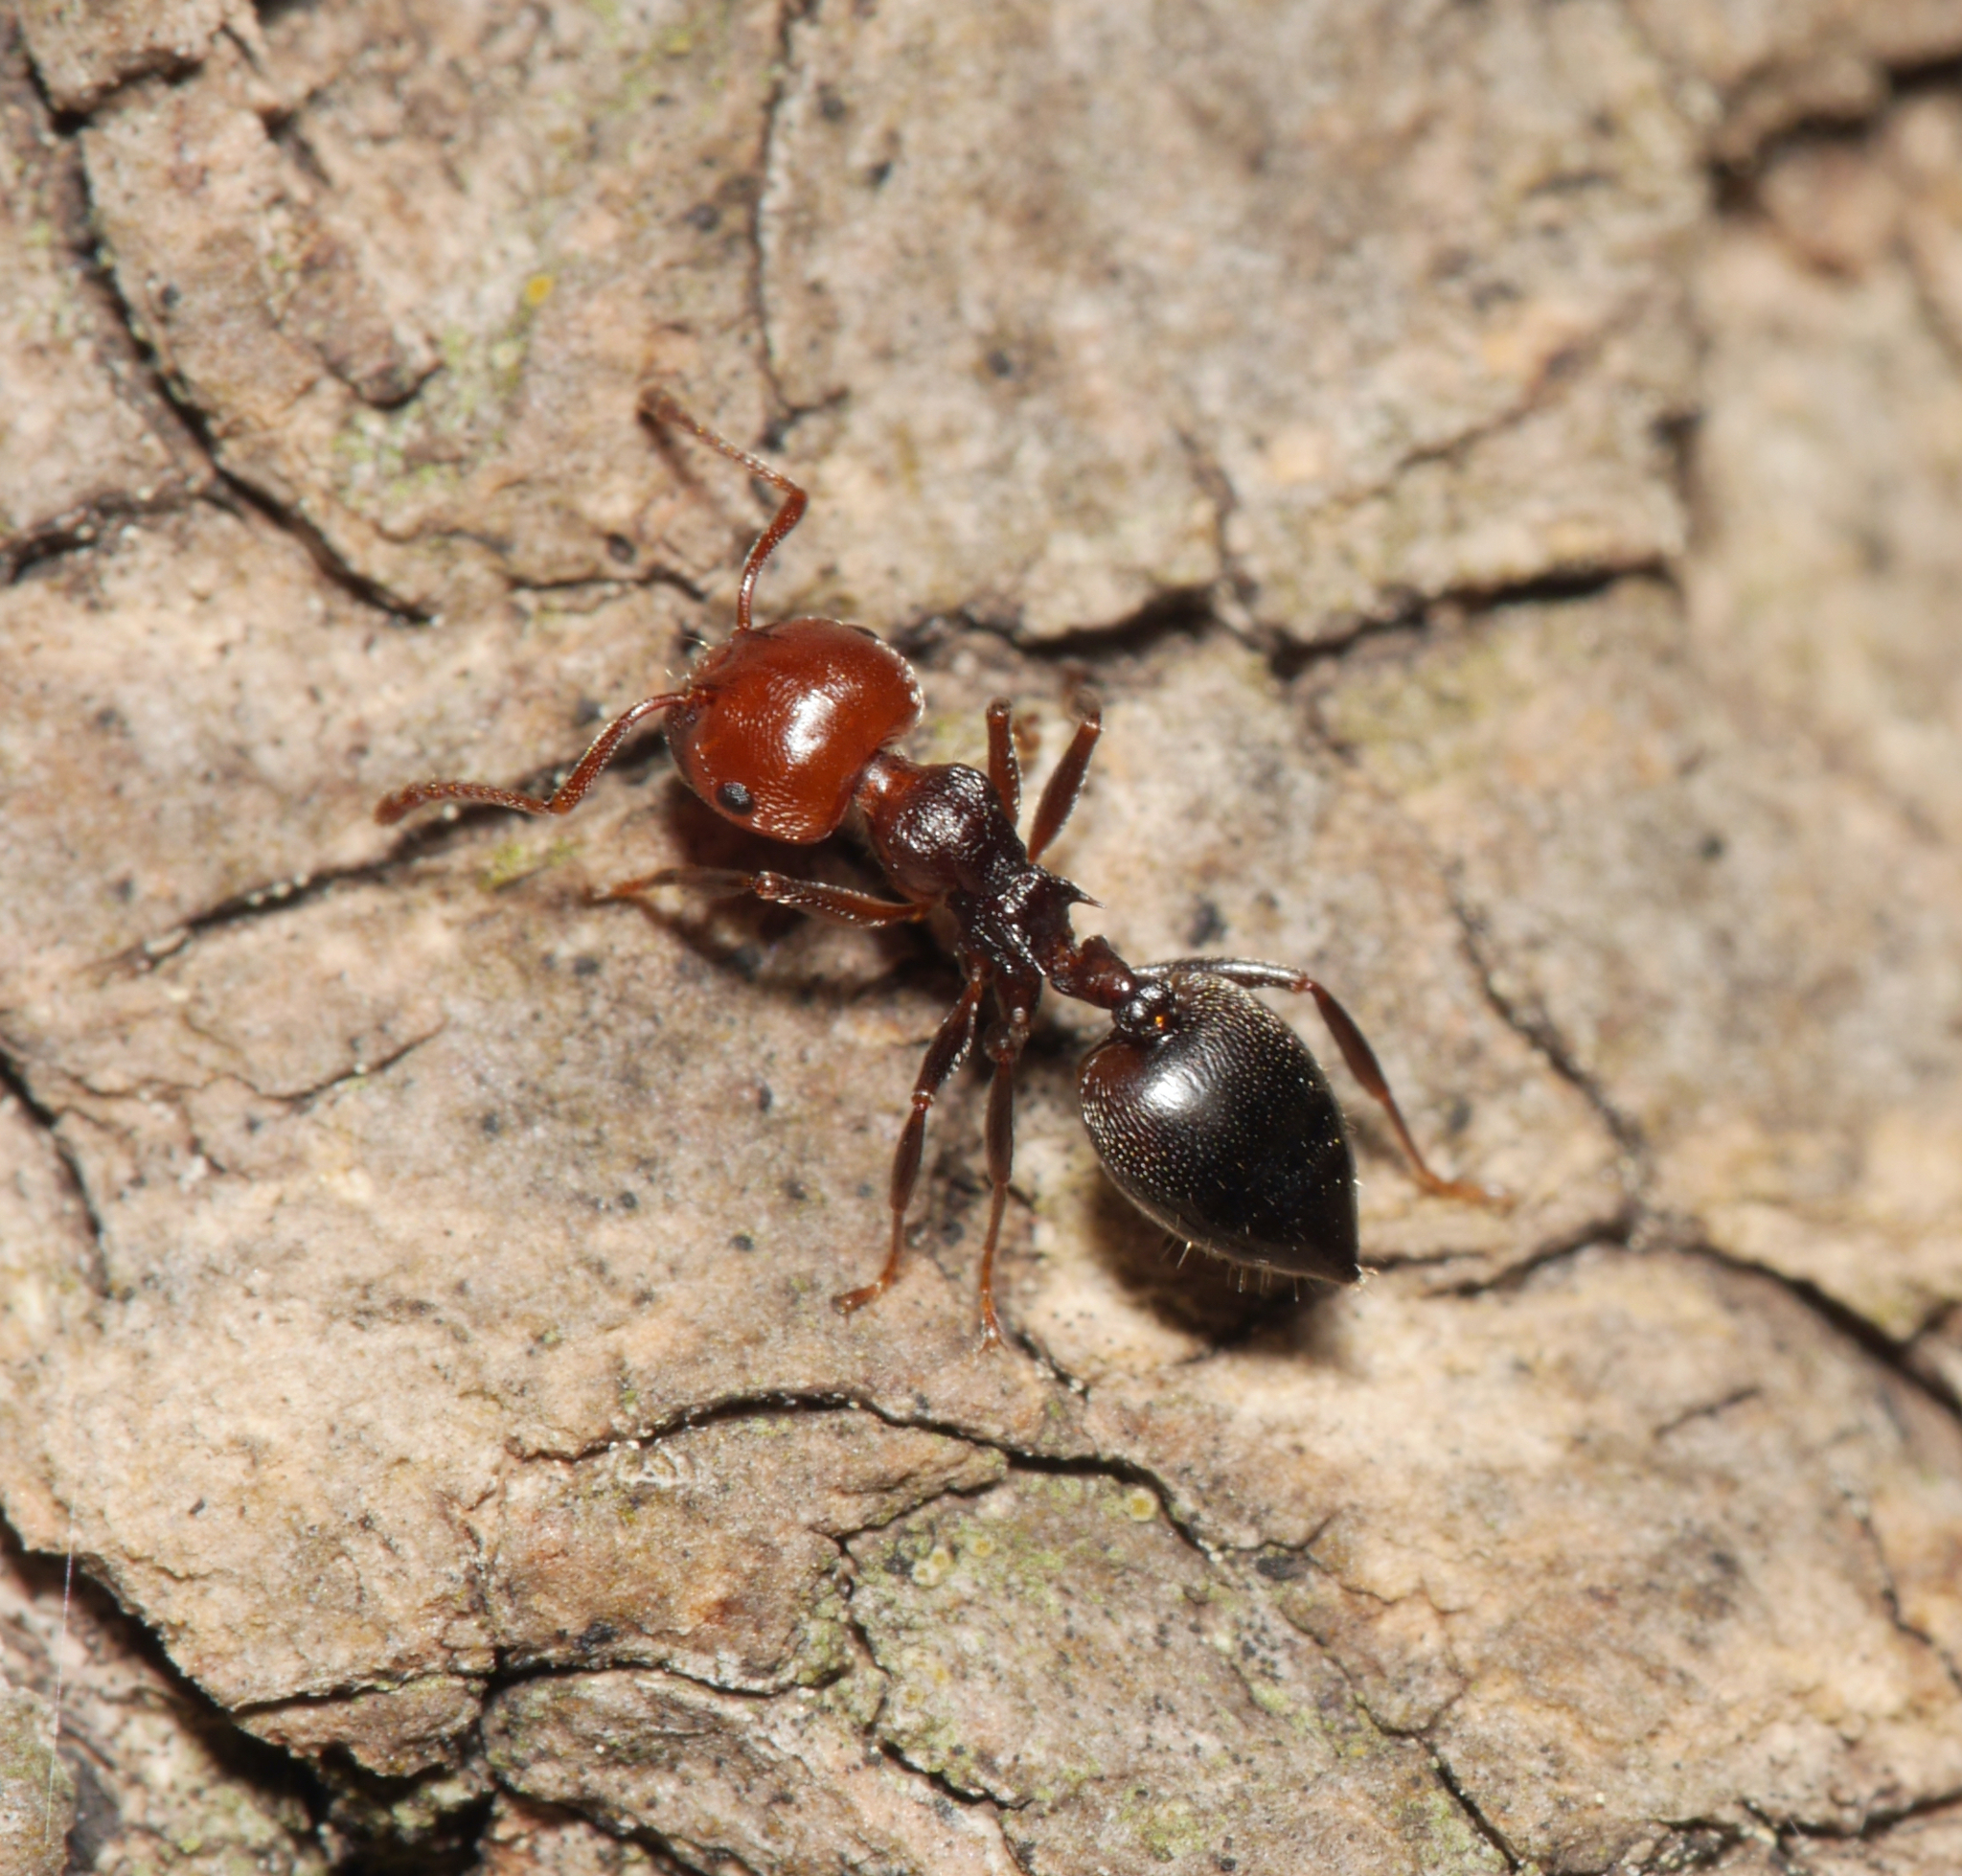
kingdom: Animalia
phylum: Arthropoda
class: Insecta
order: Hymenoptera
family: Formicidae
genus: Crematogaster
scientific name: Crematogaster scutellaris
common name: Fourmi du liège
